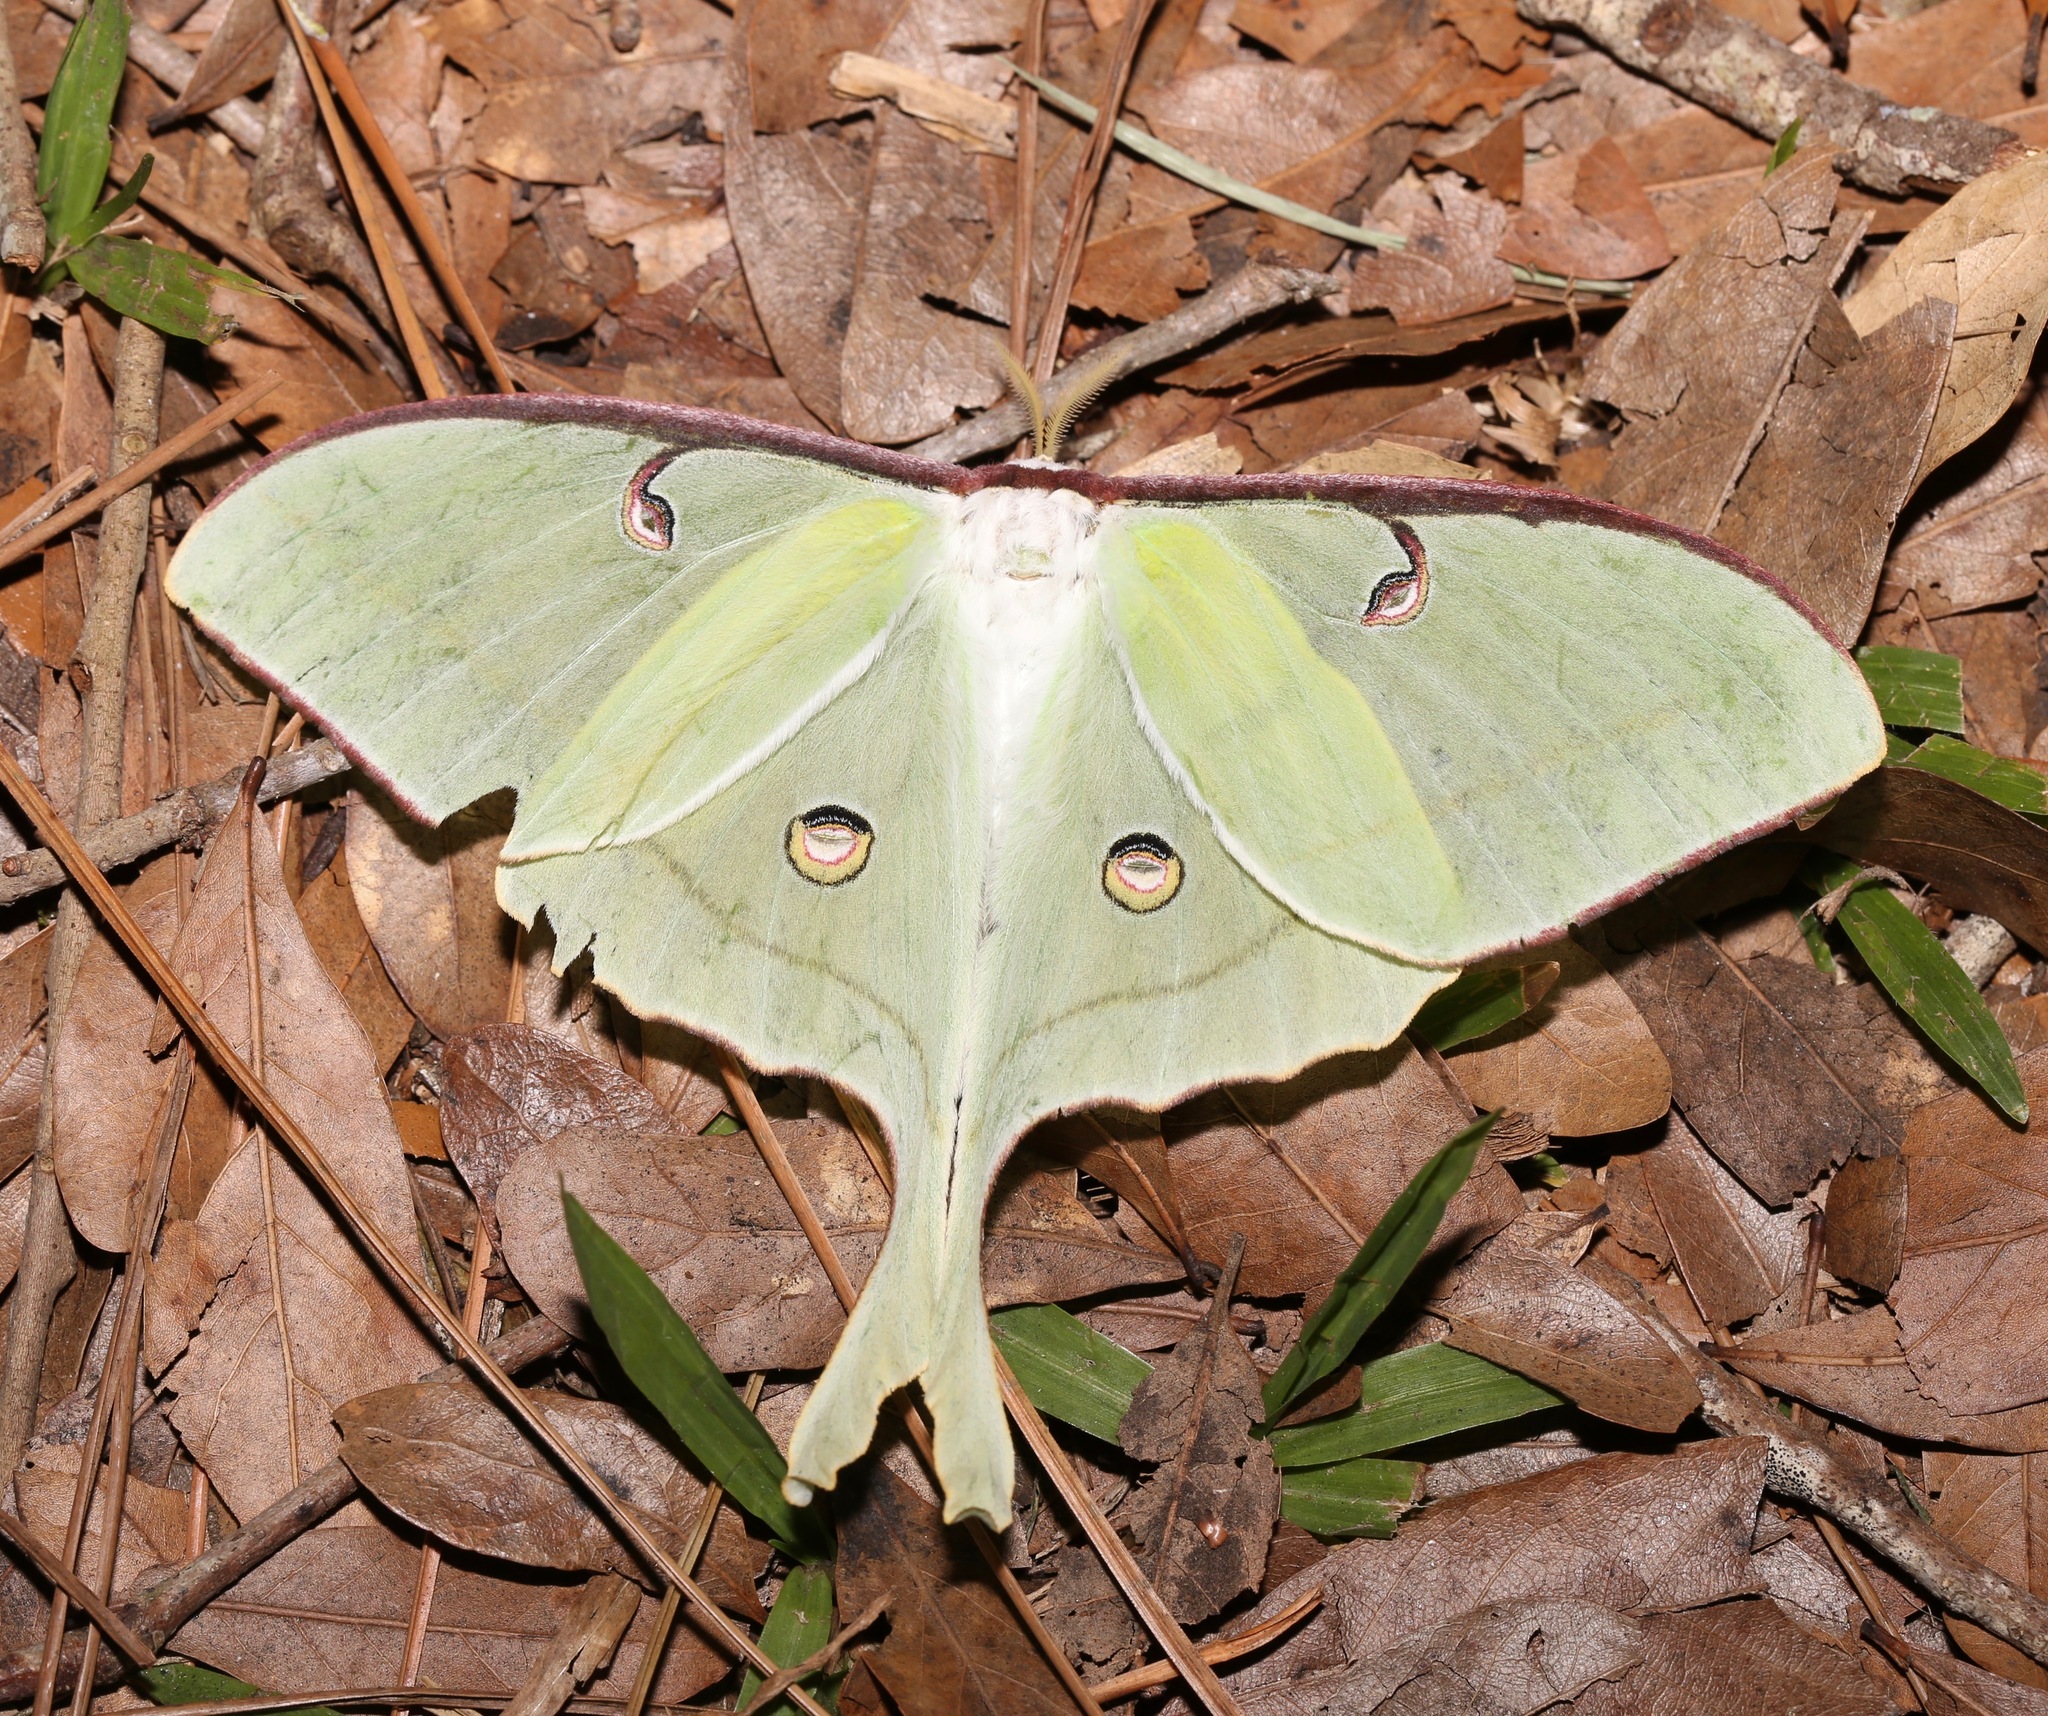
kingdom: Animalia
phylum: Arthropoda
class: Insecta
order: Lepidoptera
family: Saturniidae
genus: Actias
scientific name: Actias luna
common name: Luna moth
